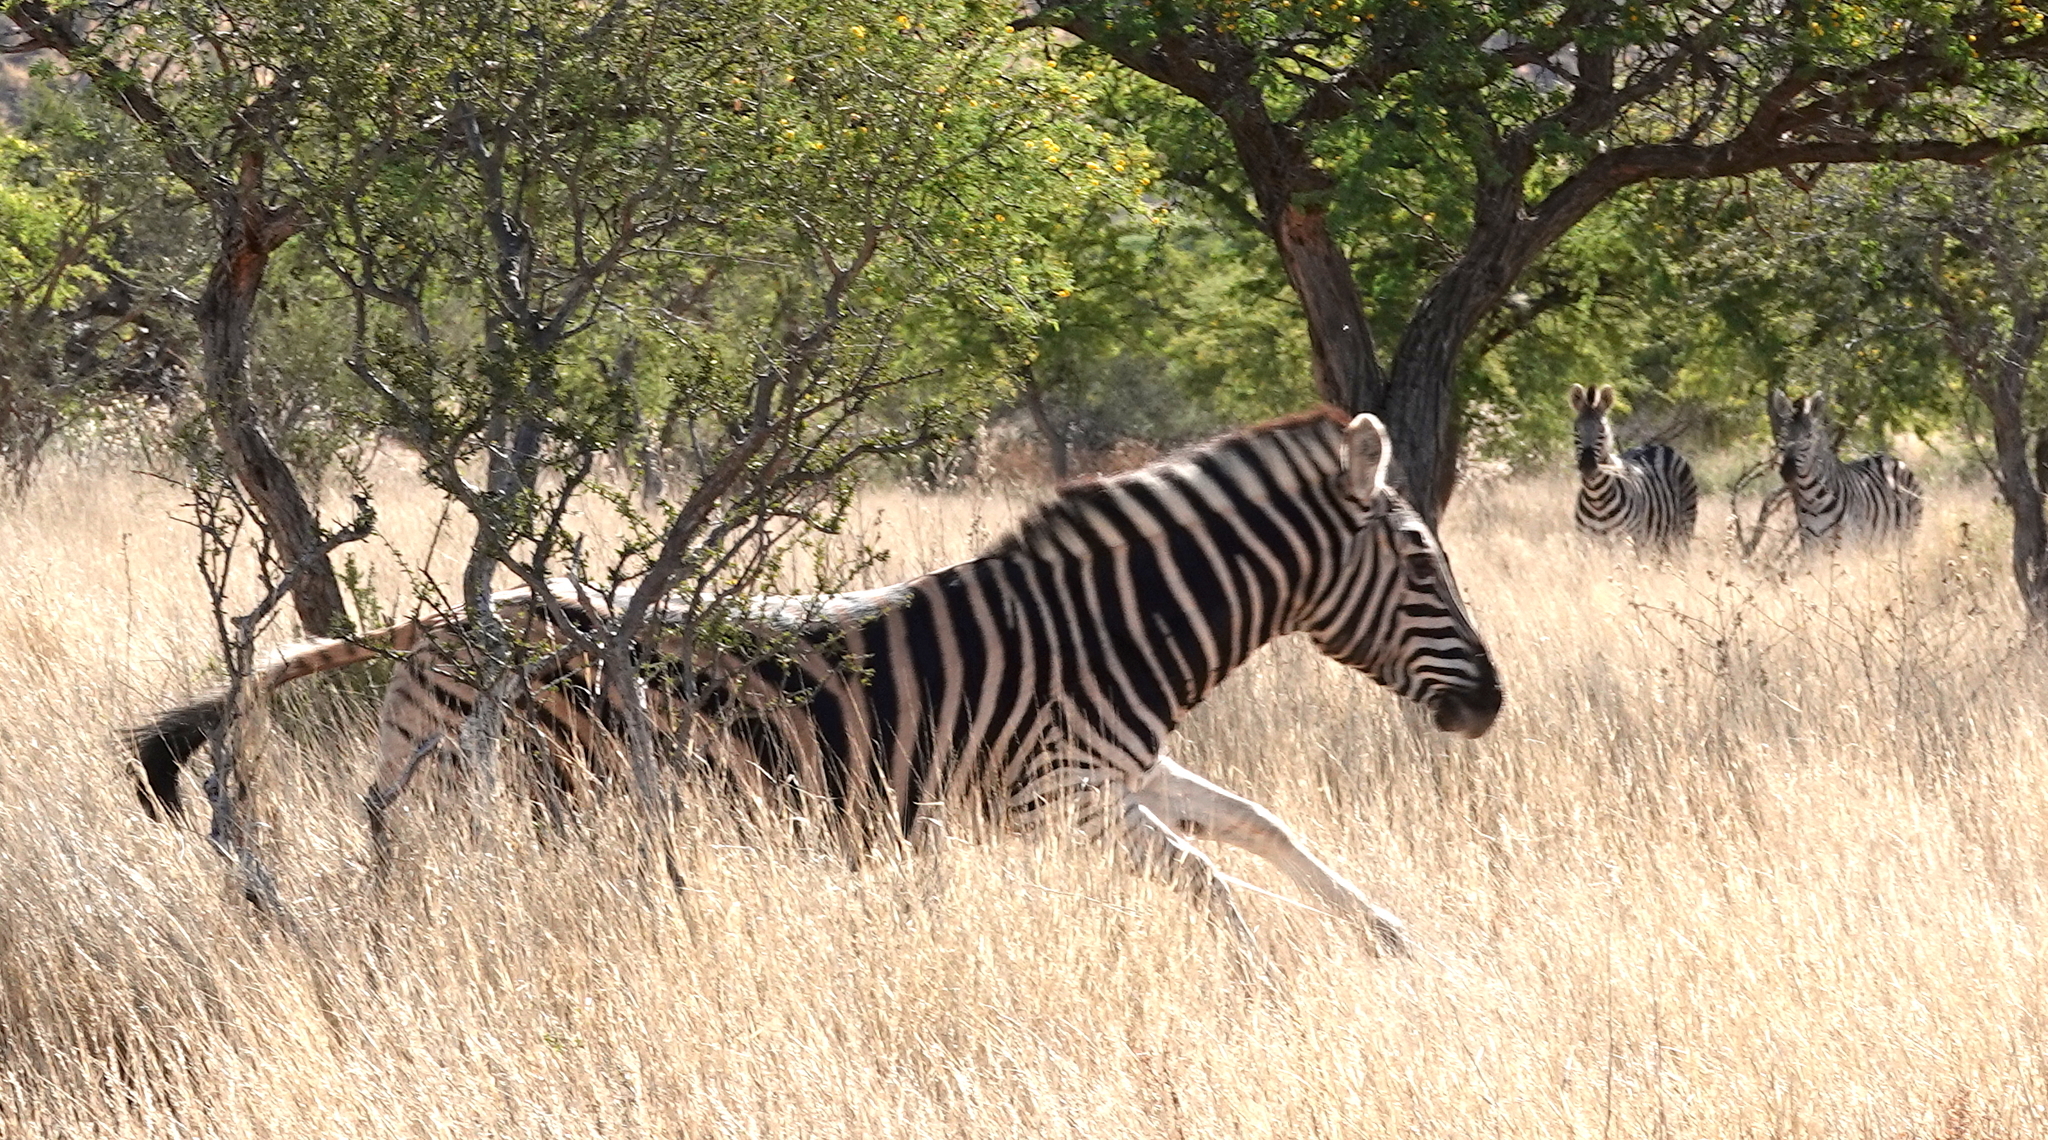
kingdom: Animalia
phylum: Chordata
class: Mammalia
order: Perissodactyla
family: Equidae
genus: Equus
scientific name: Equus quagga
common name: Plains zebra
